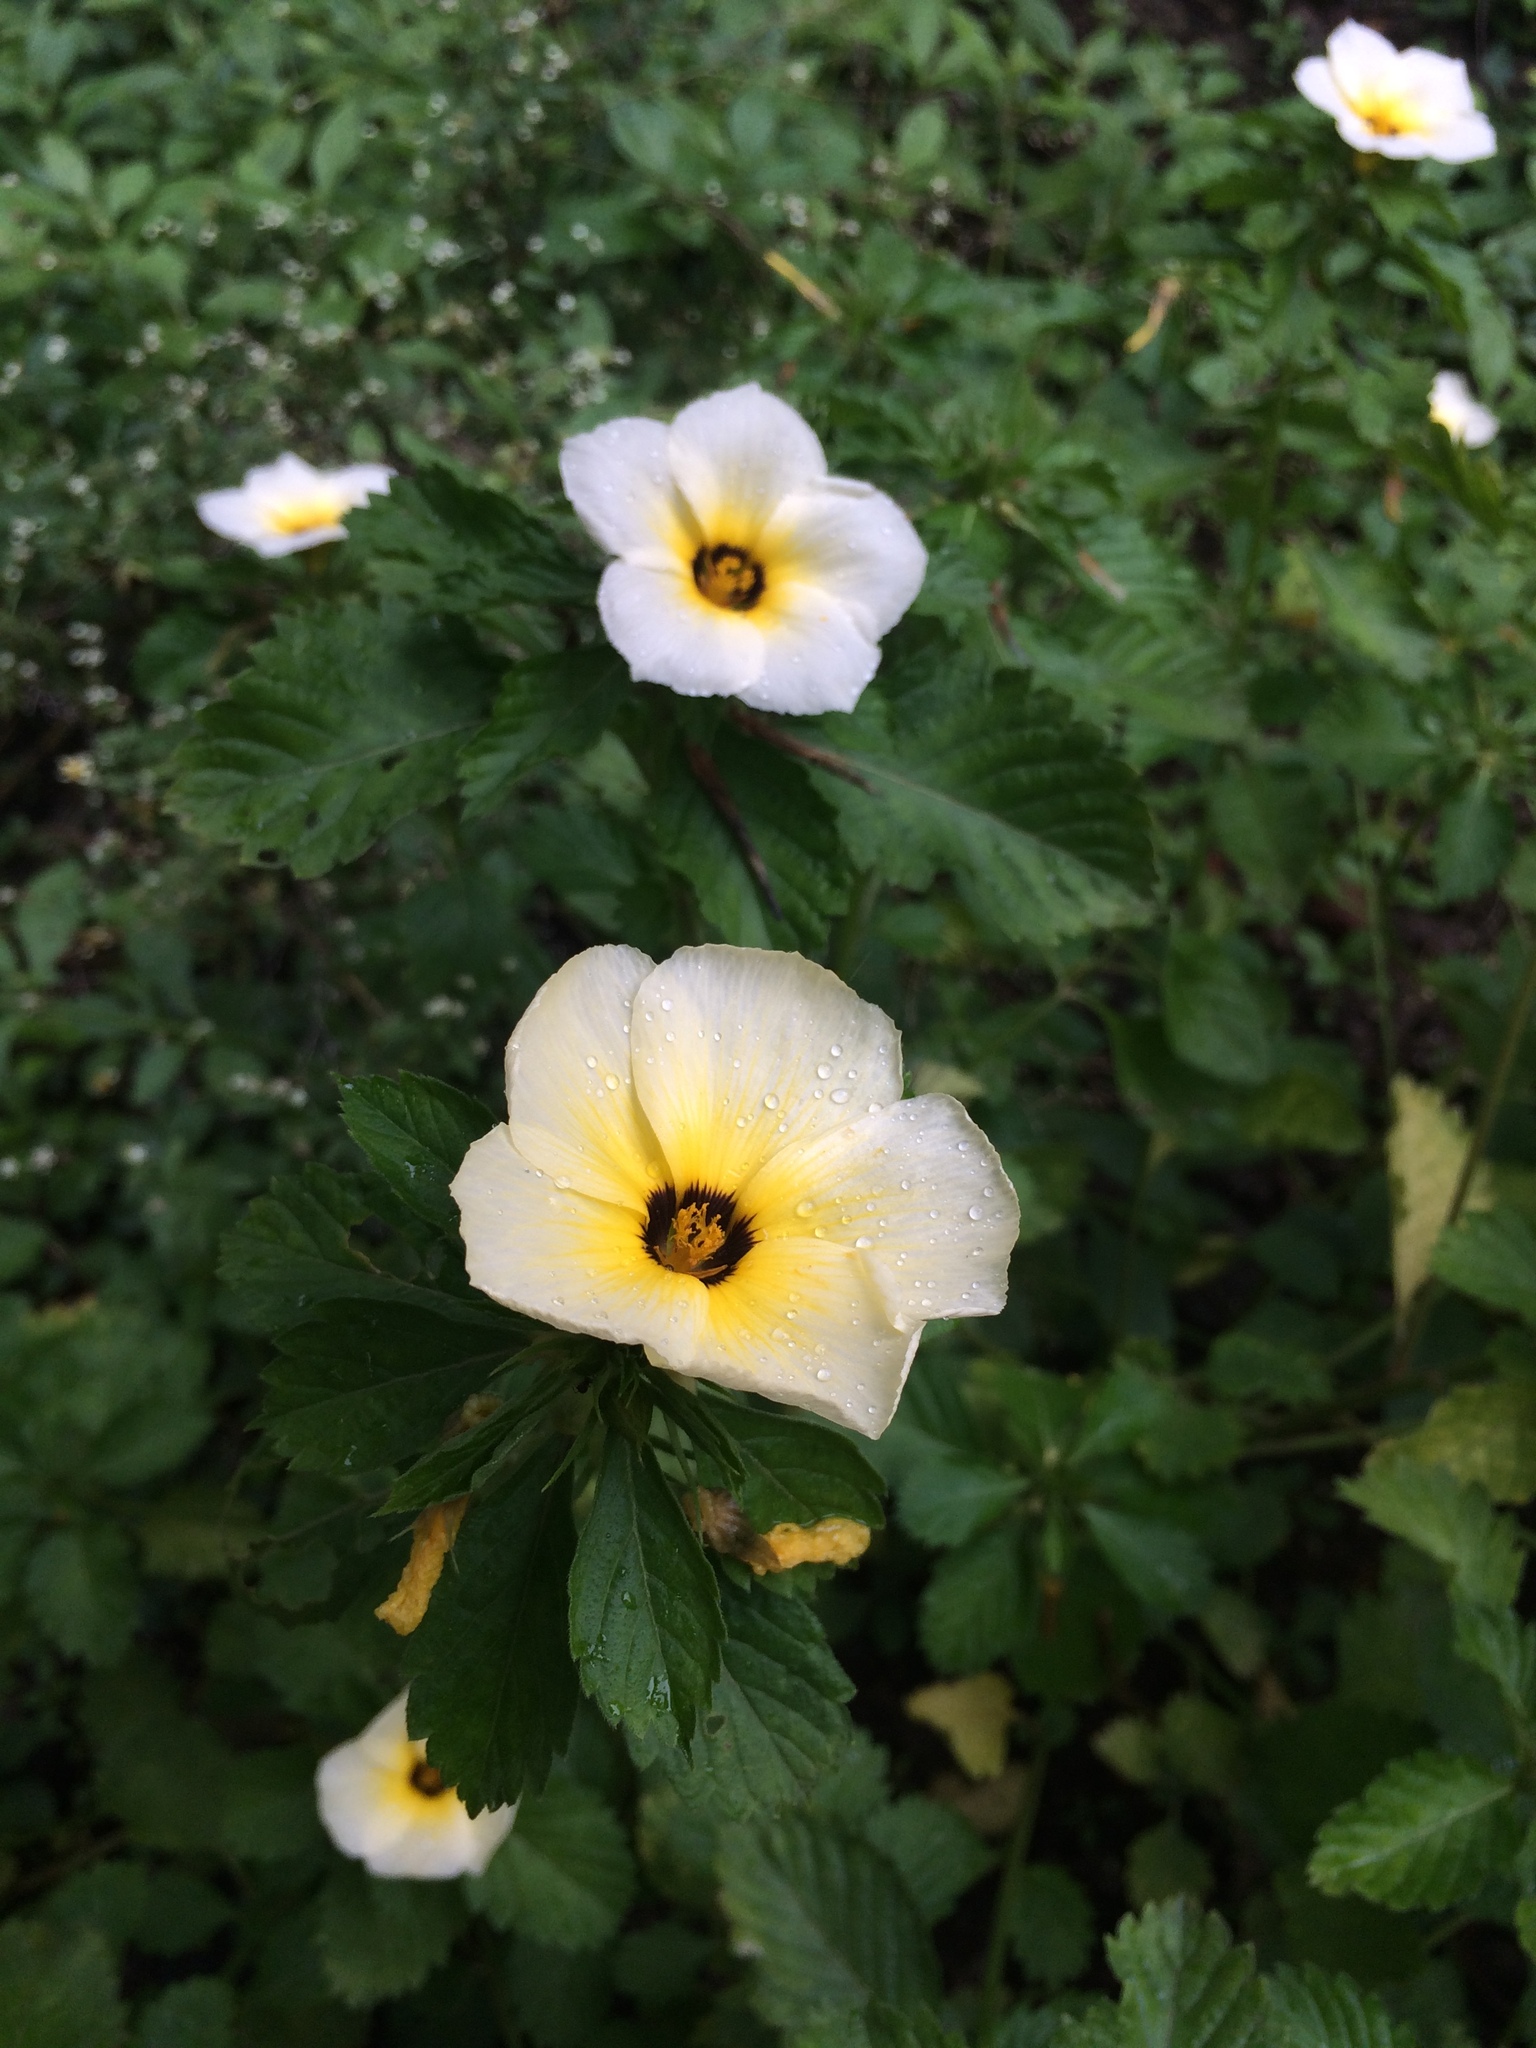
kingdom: Plantae
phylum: Tracheophyta
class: Magnoliopsida
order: Malpighiales
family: Turneraceae
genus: Turnera
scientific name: Turnera subulata
